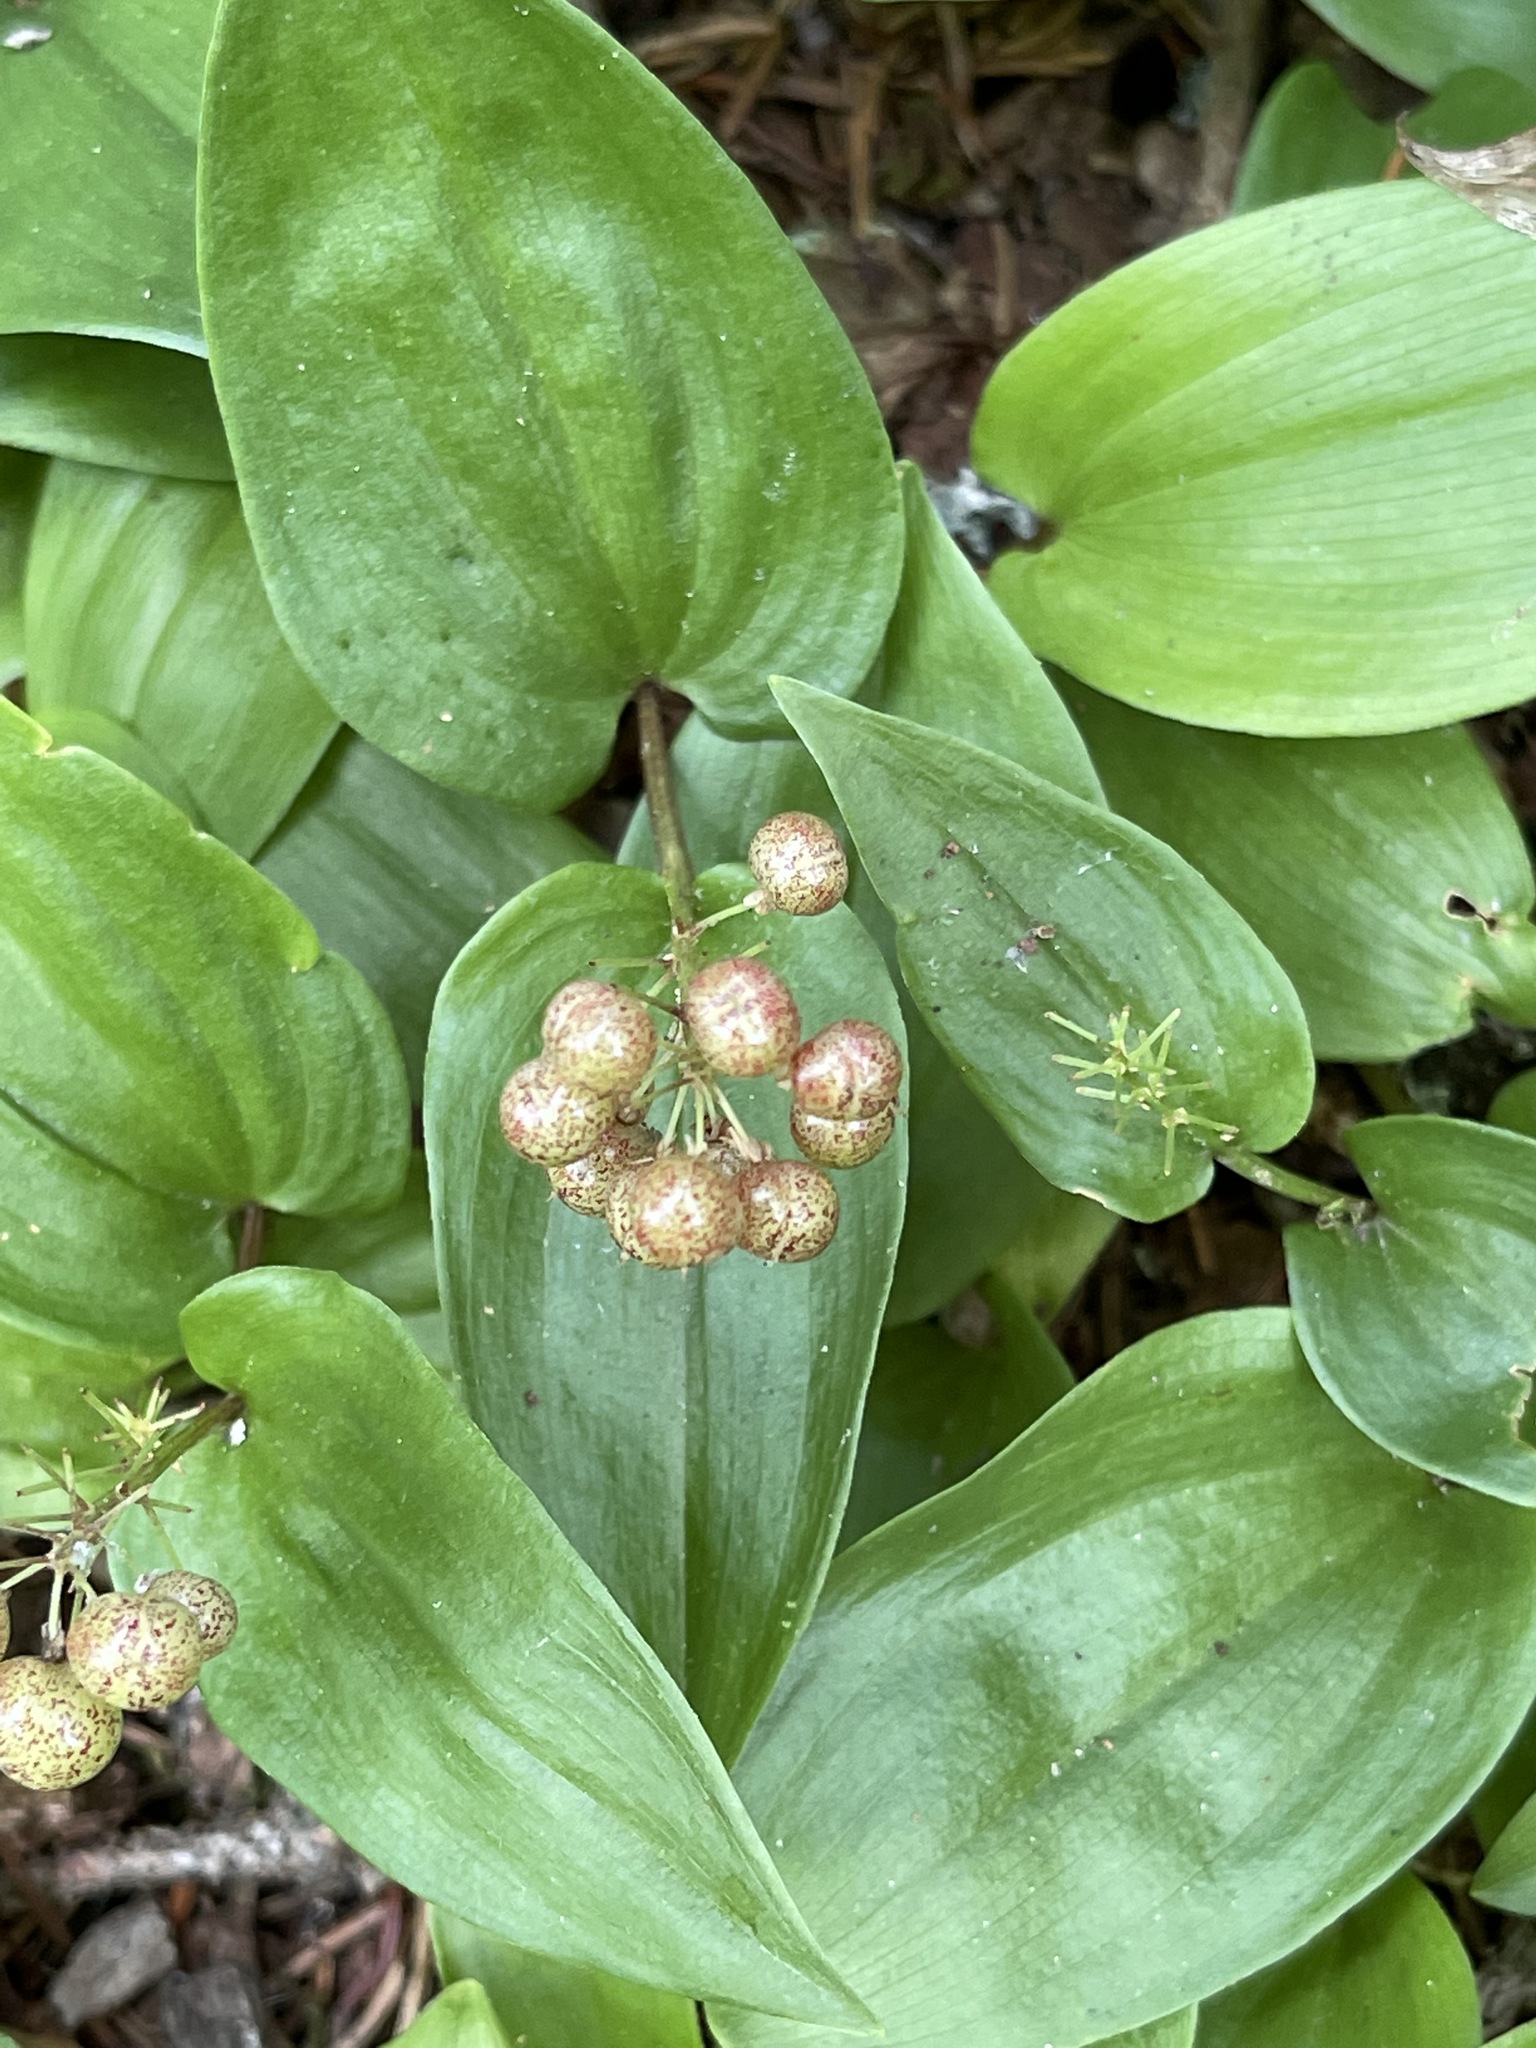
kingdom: Plantae
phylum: Tracheophyta
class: Liliopsida
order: Asparagales
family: Asparagaceae
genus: Maianthemum
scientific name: Maianthemum canadense
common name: False lily-of-the-valley
